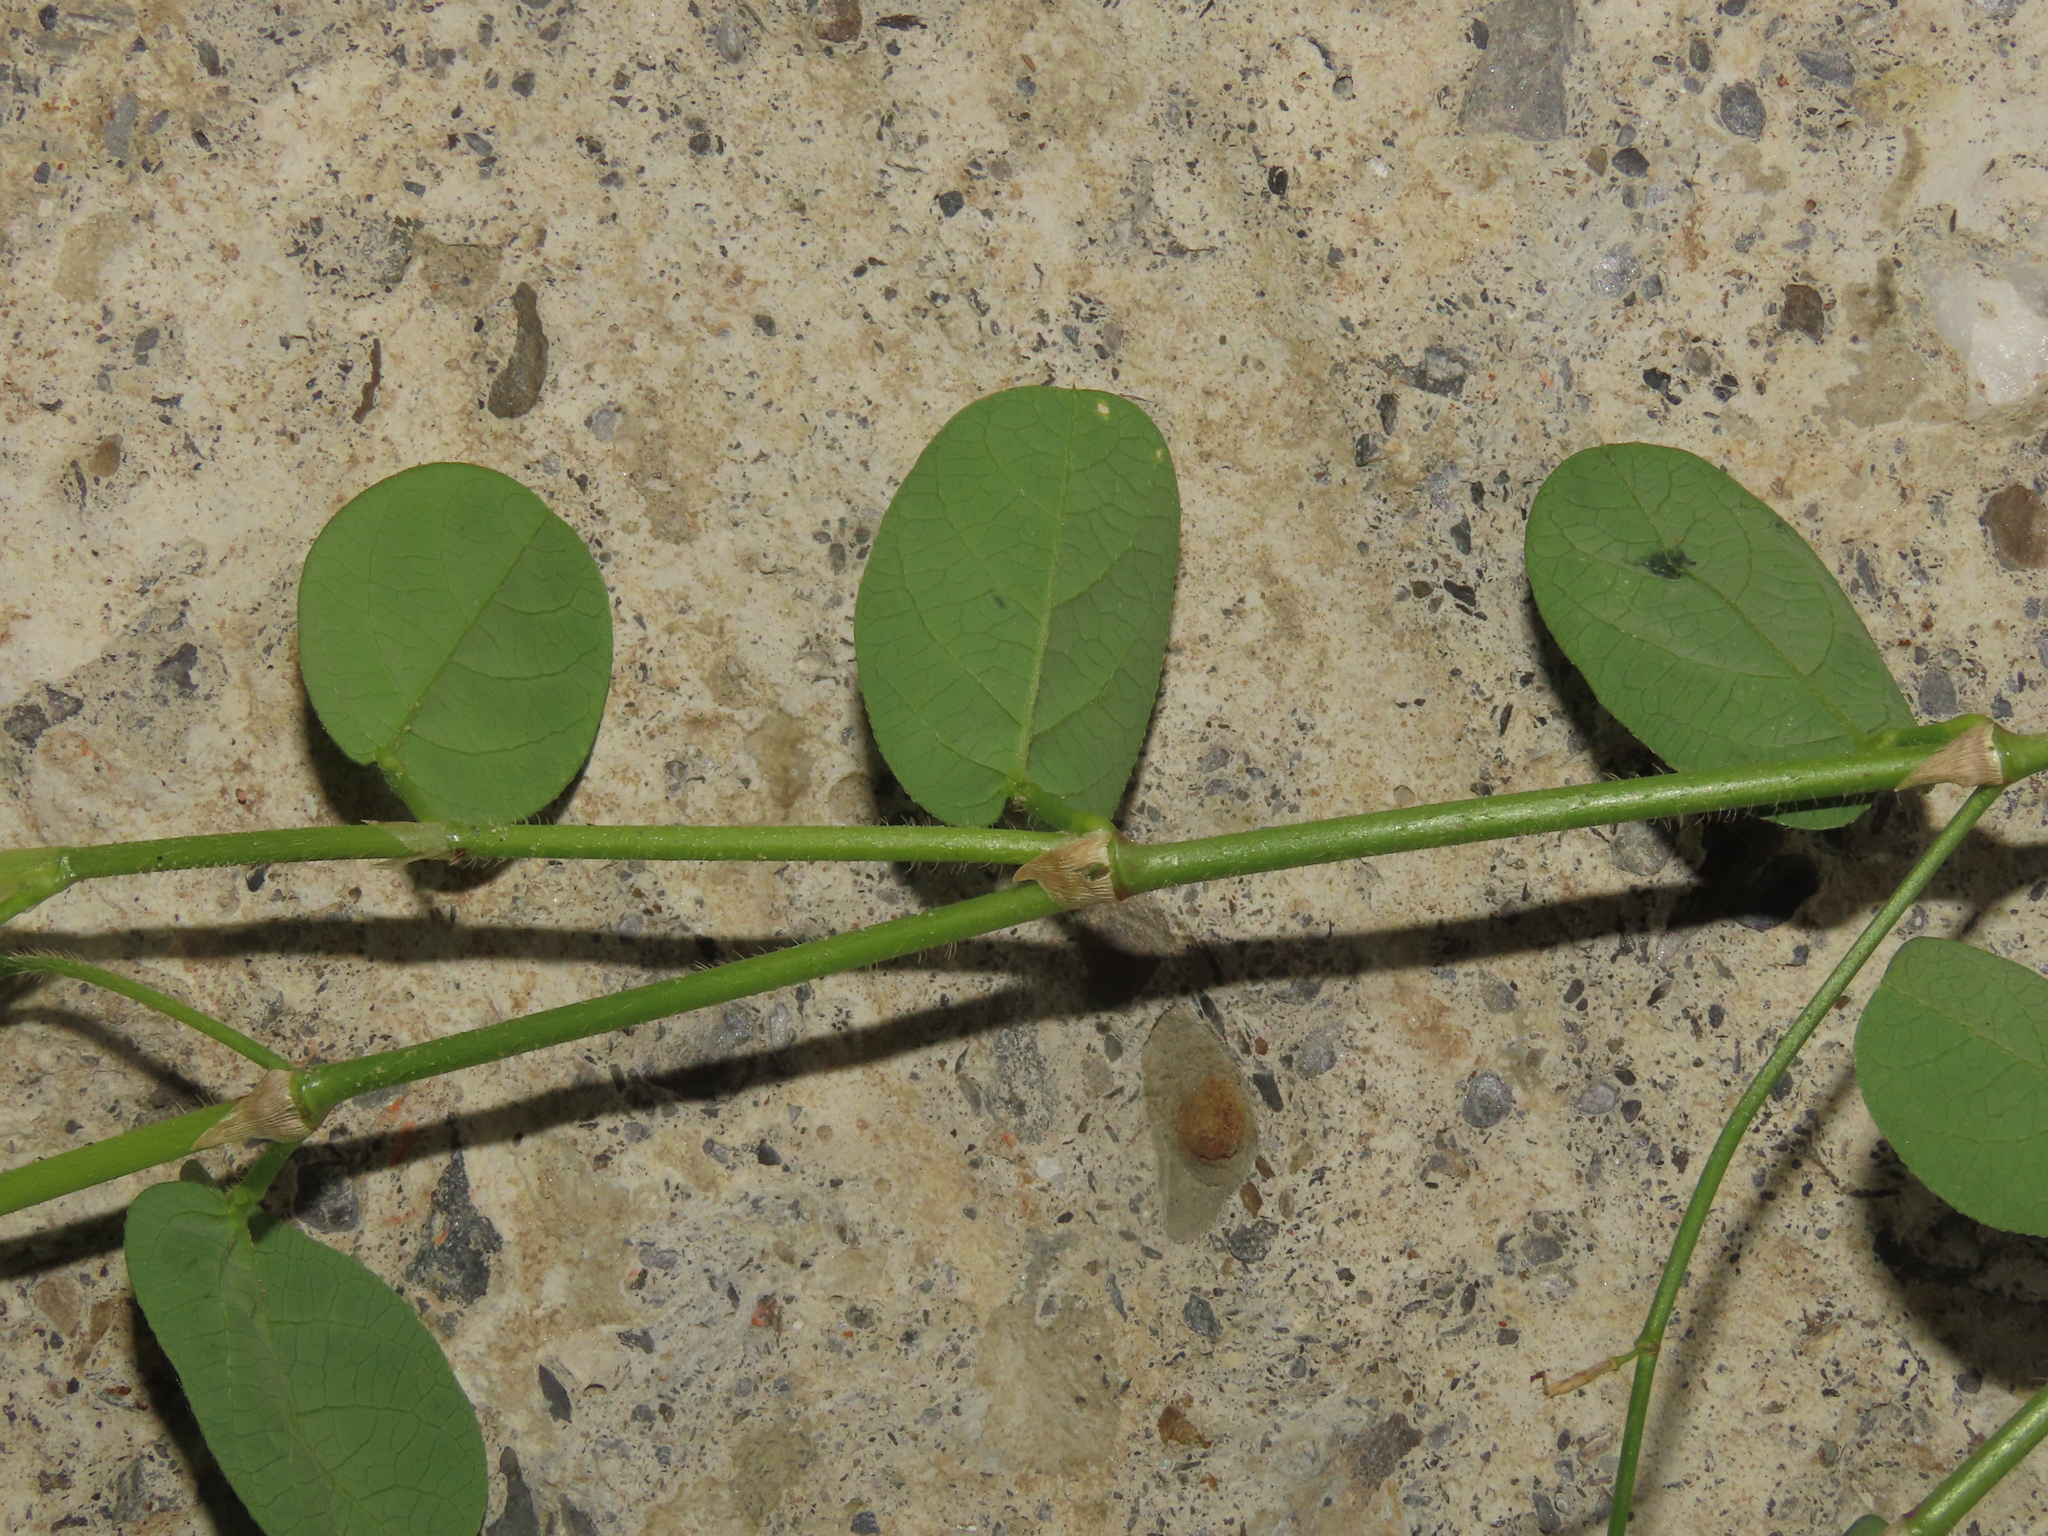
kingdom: Plantae
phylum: Tracheophyta
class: Magnoliopsida
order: Fabales
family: Fabaceae
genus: Alysicarpus
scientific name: Alysicarpus ovalifolius
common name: Alyce clover
